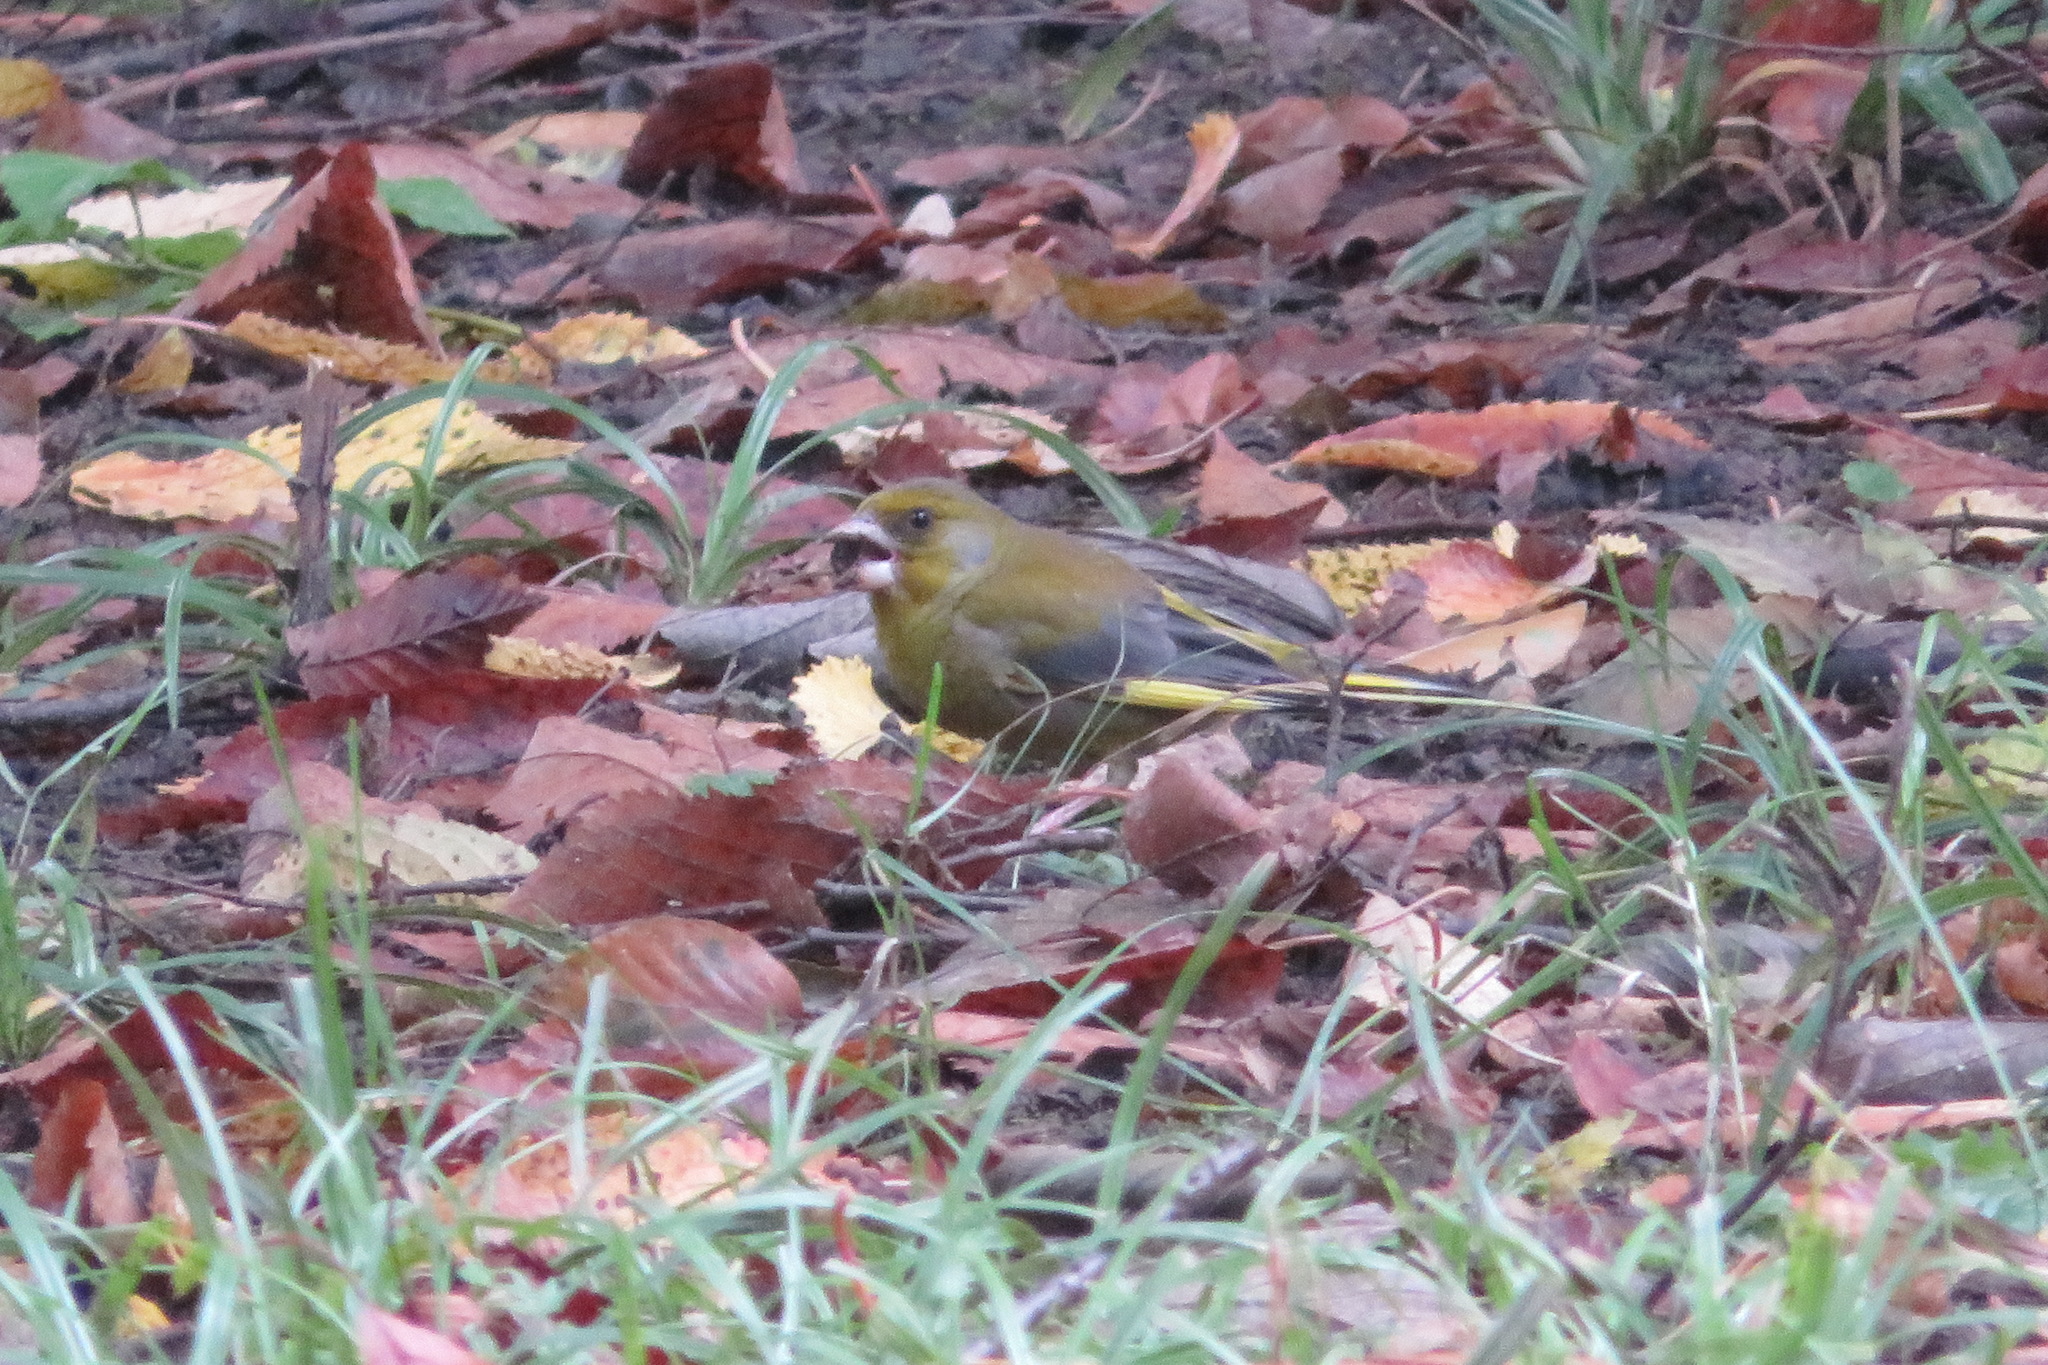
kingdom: Plantae
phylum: Tracheophyta
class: Liliopsida
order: Poales
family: Poaceae
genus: Chloris
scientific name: Chloris chloris
